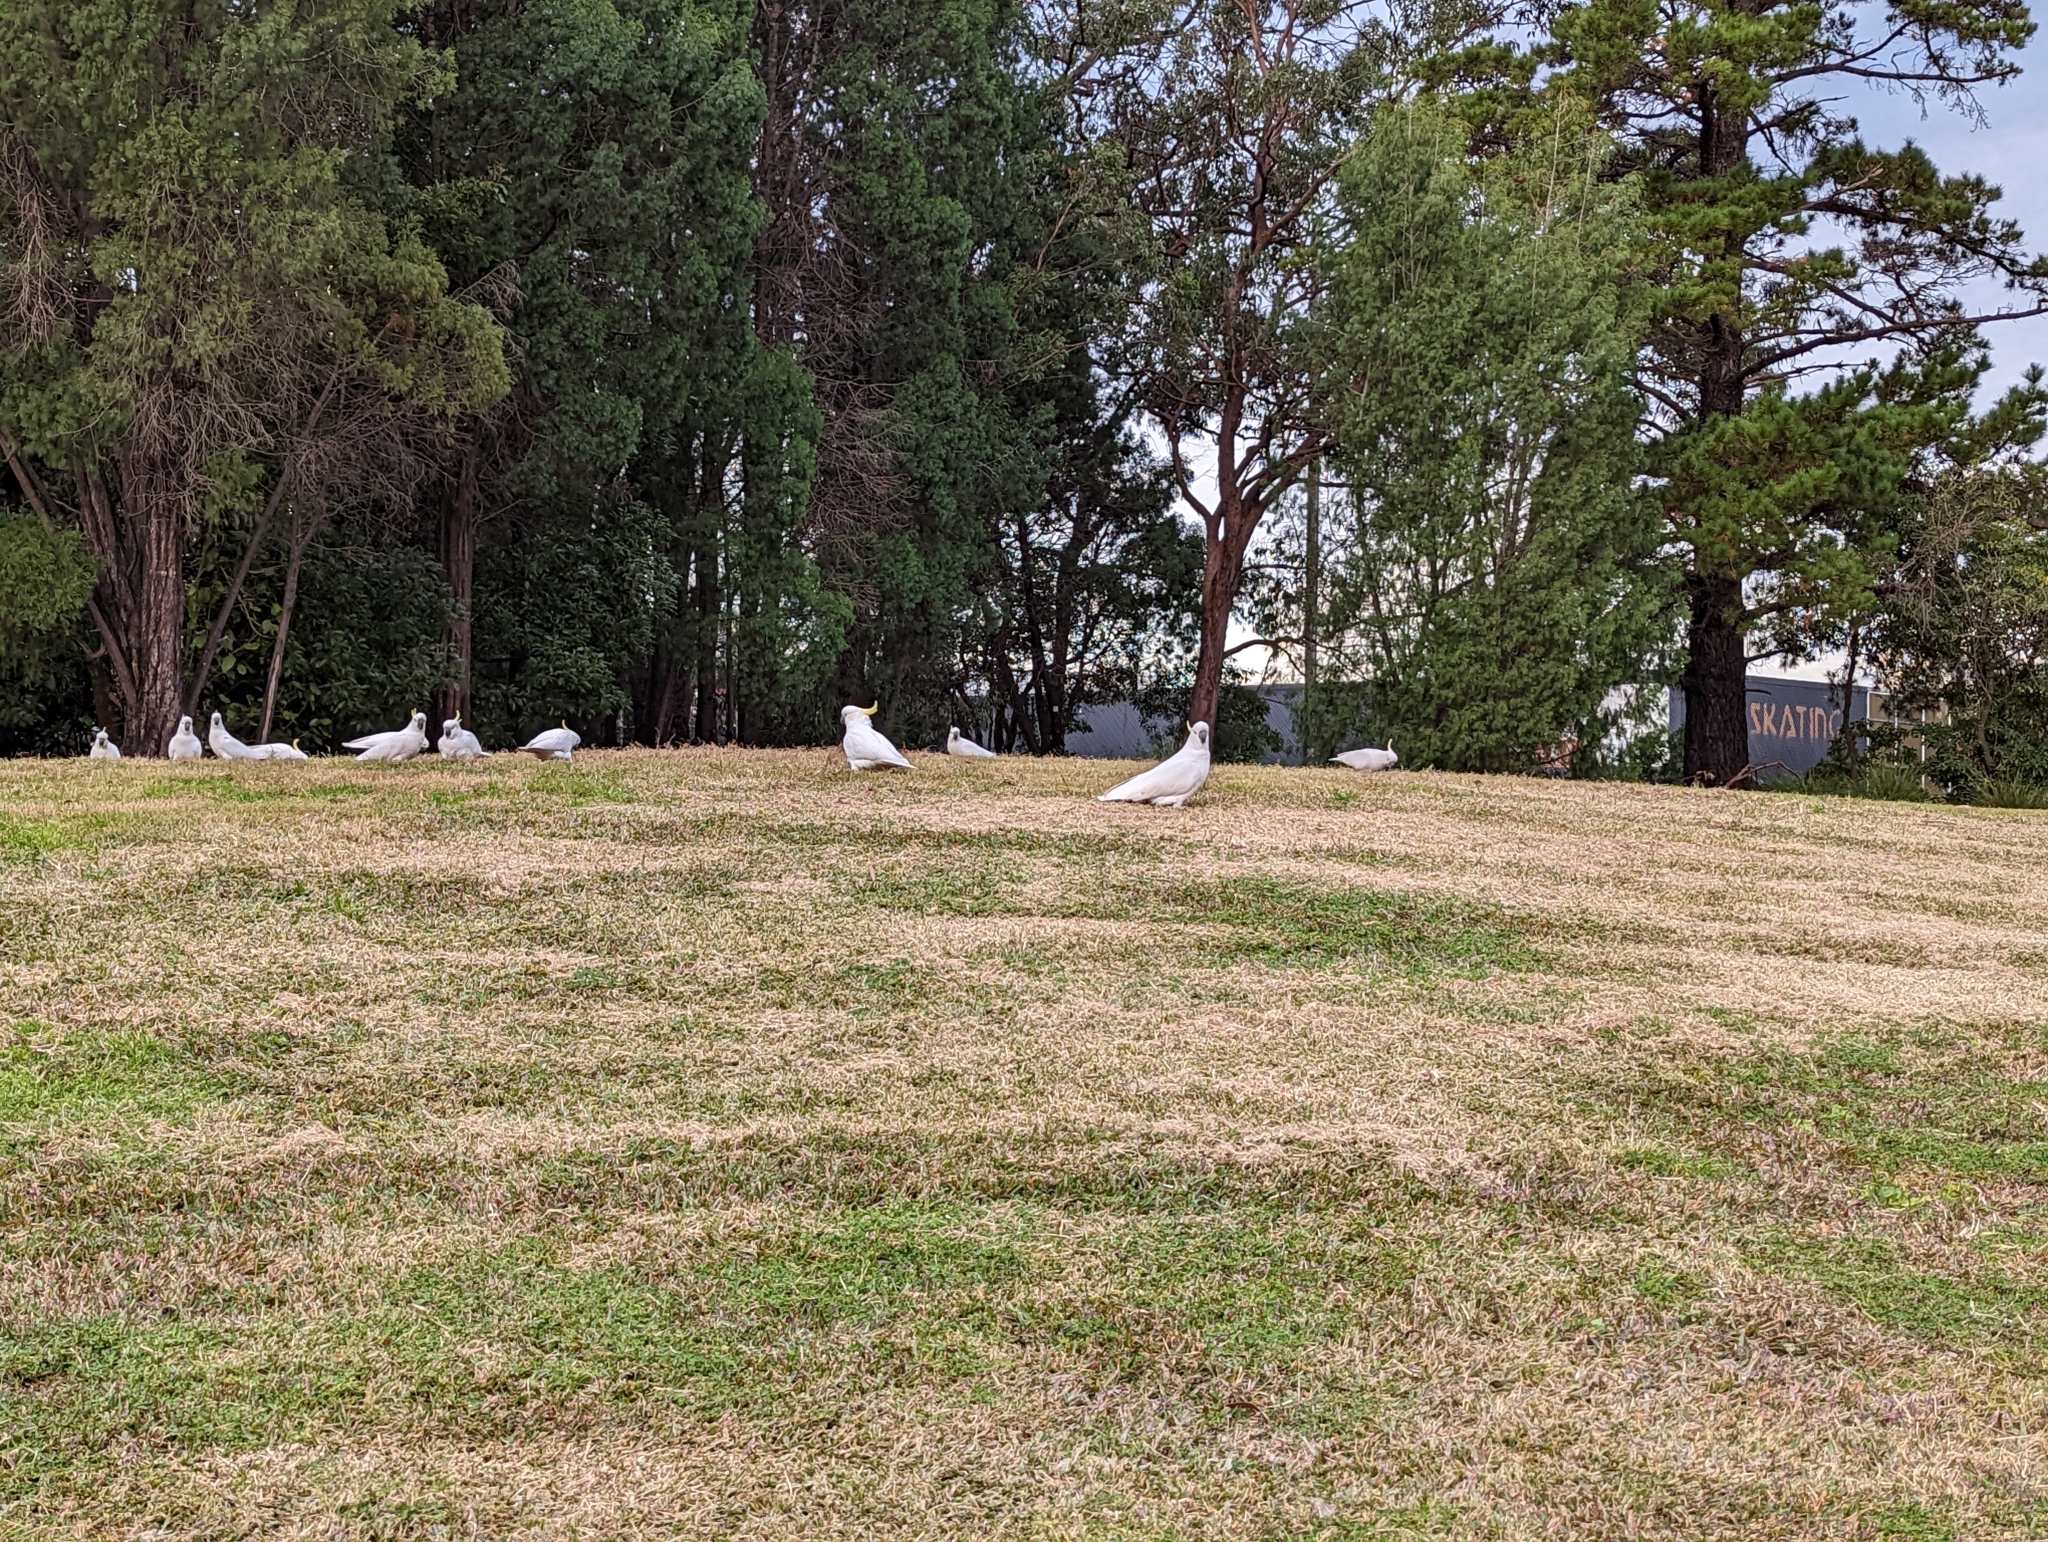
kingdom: Animalia
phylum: Chordata
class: Aves
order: Psittaciformes
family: Psittacidae
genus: Cacatua
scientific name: Cacatua galerita
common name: Sulphur-crested cockatoo
